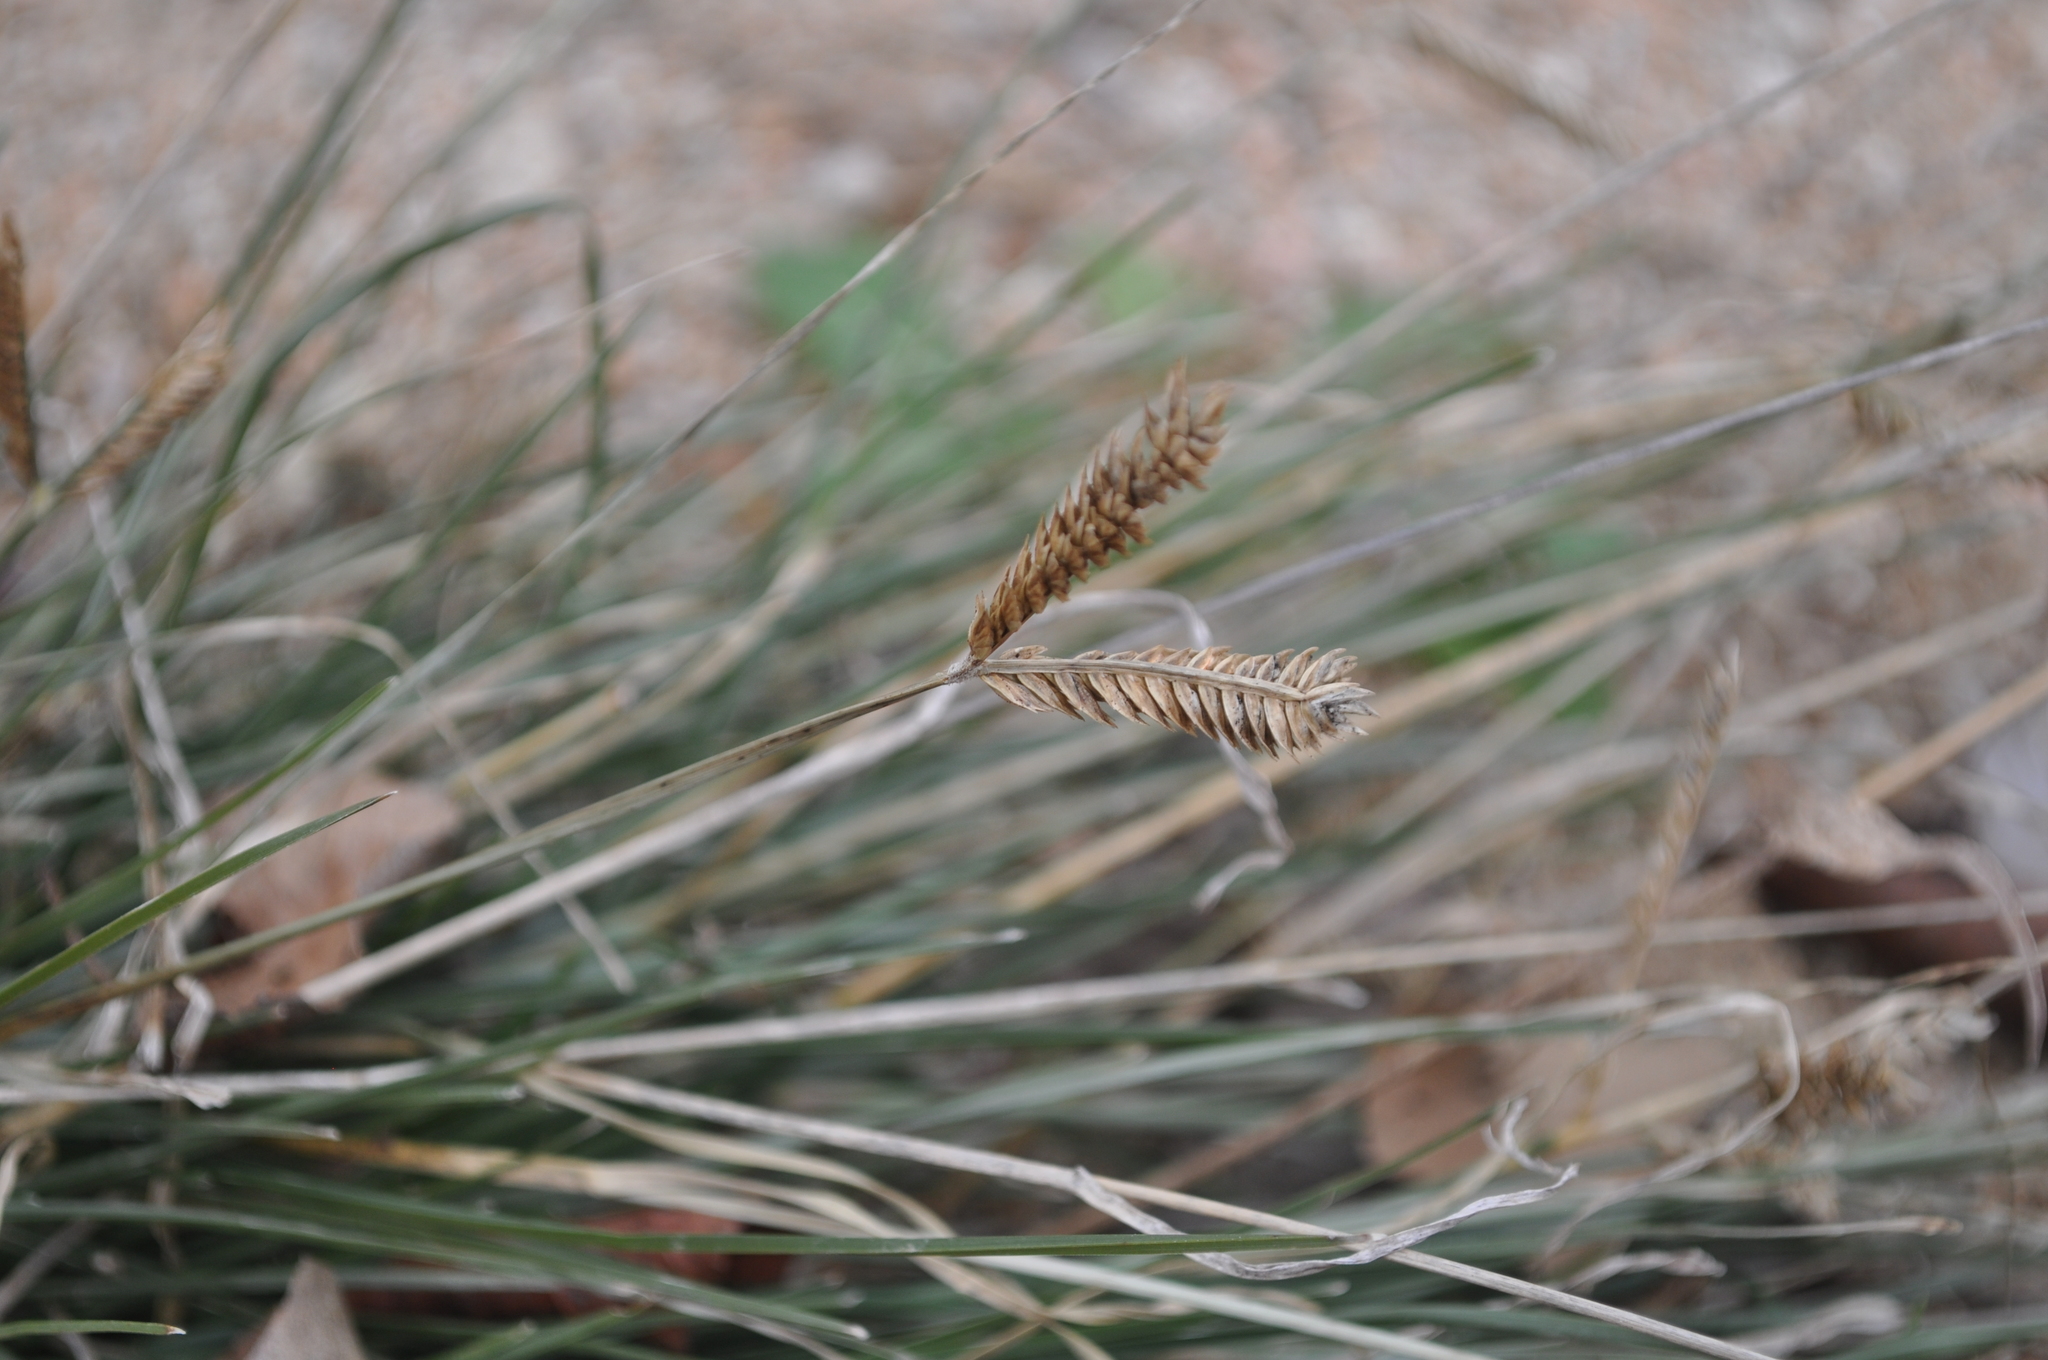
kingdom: Plantae
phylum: Tracheophyta
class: Liliopsida
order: Poales
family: Poaceae
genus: Eleusine
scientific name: Eleusine tristachya
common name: American yard-grass
